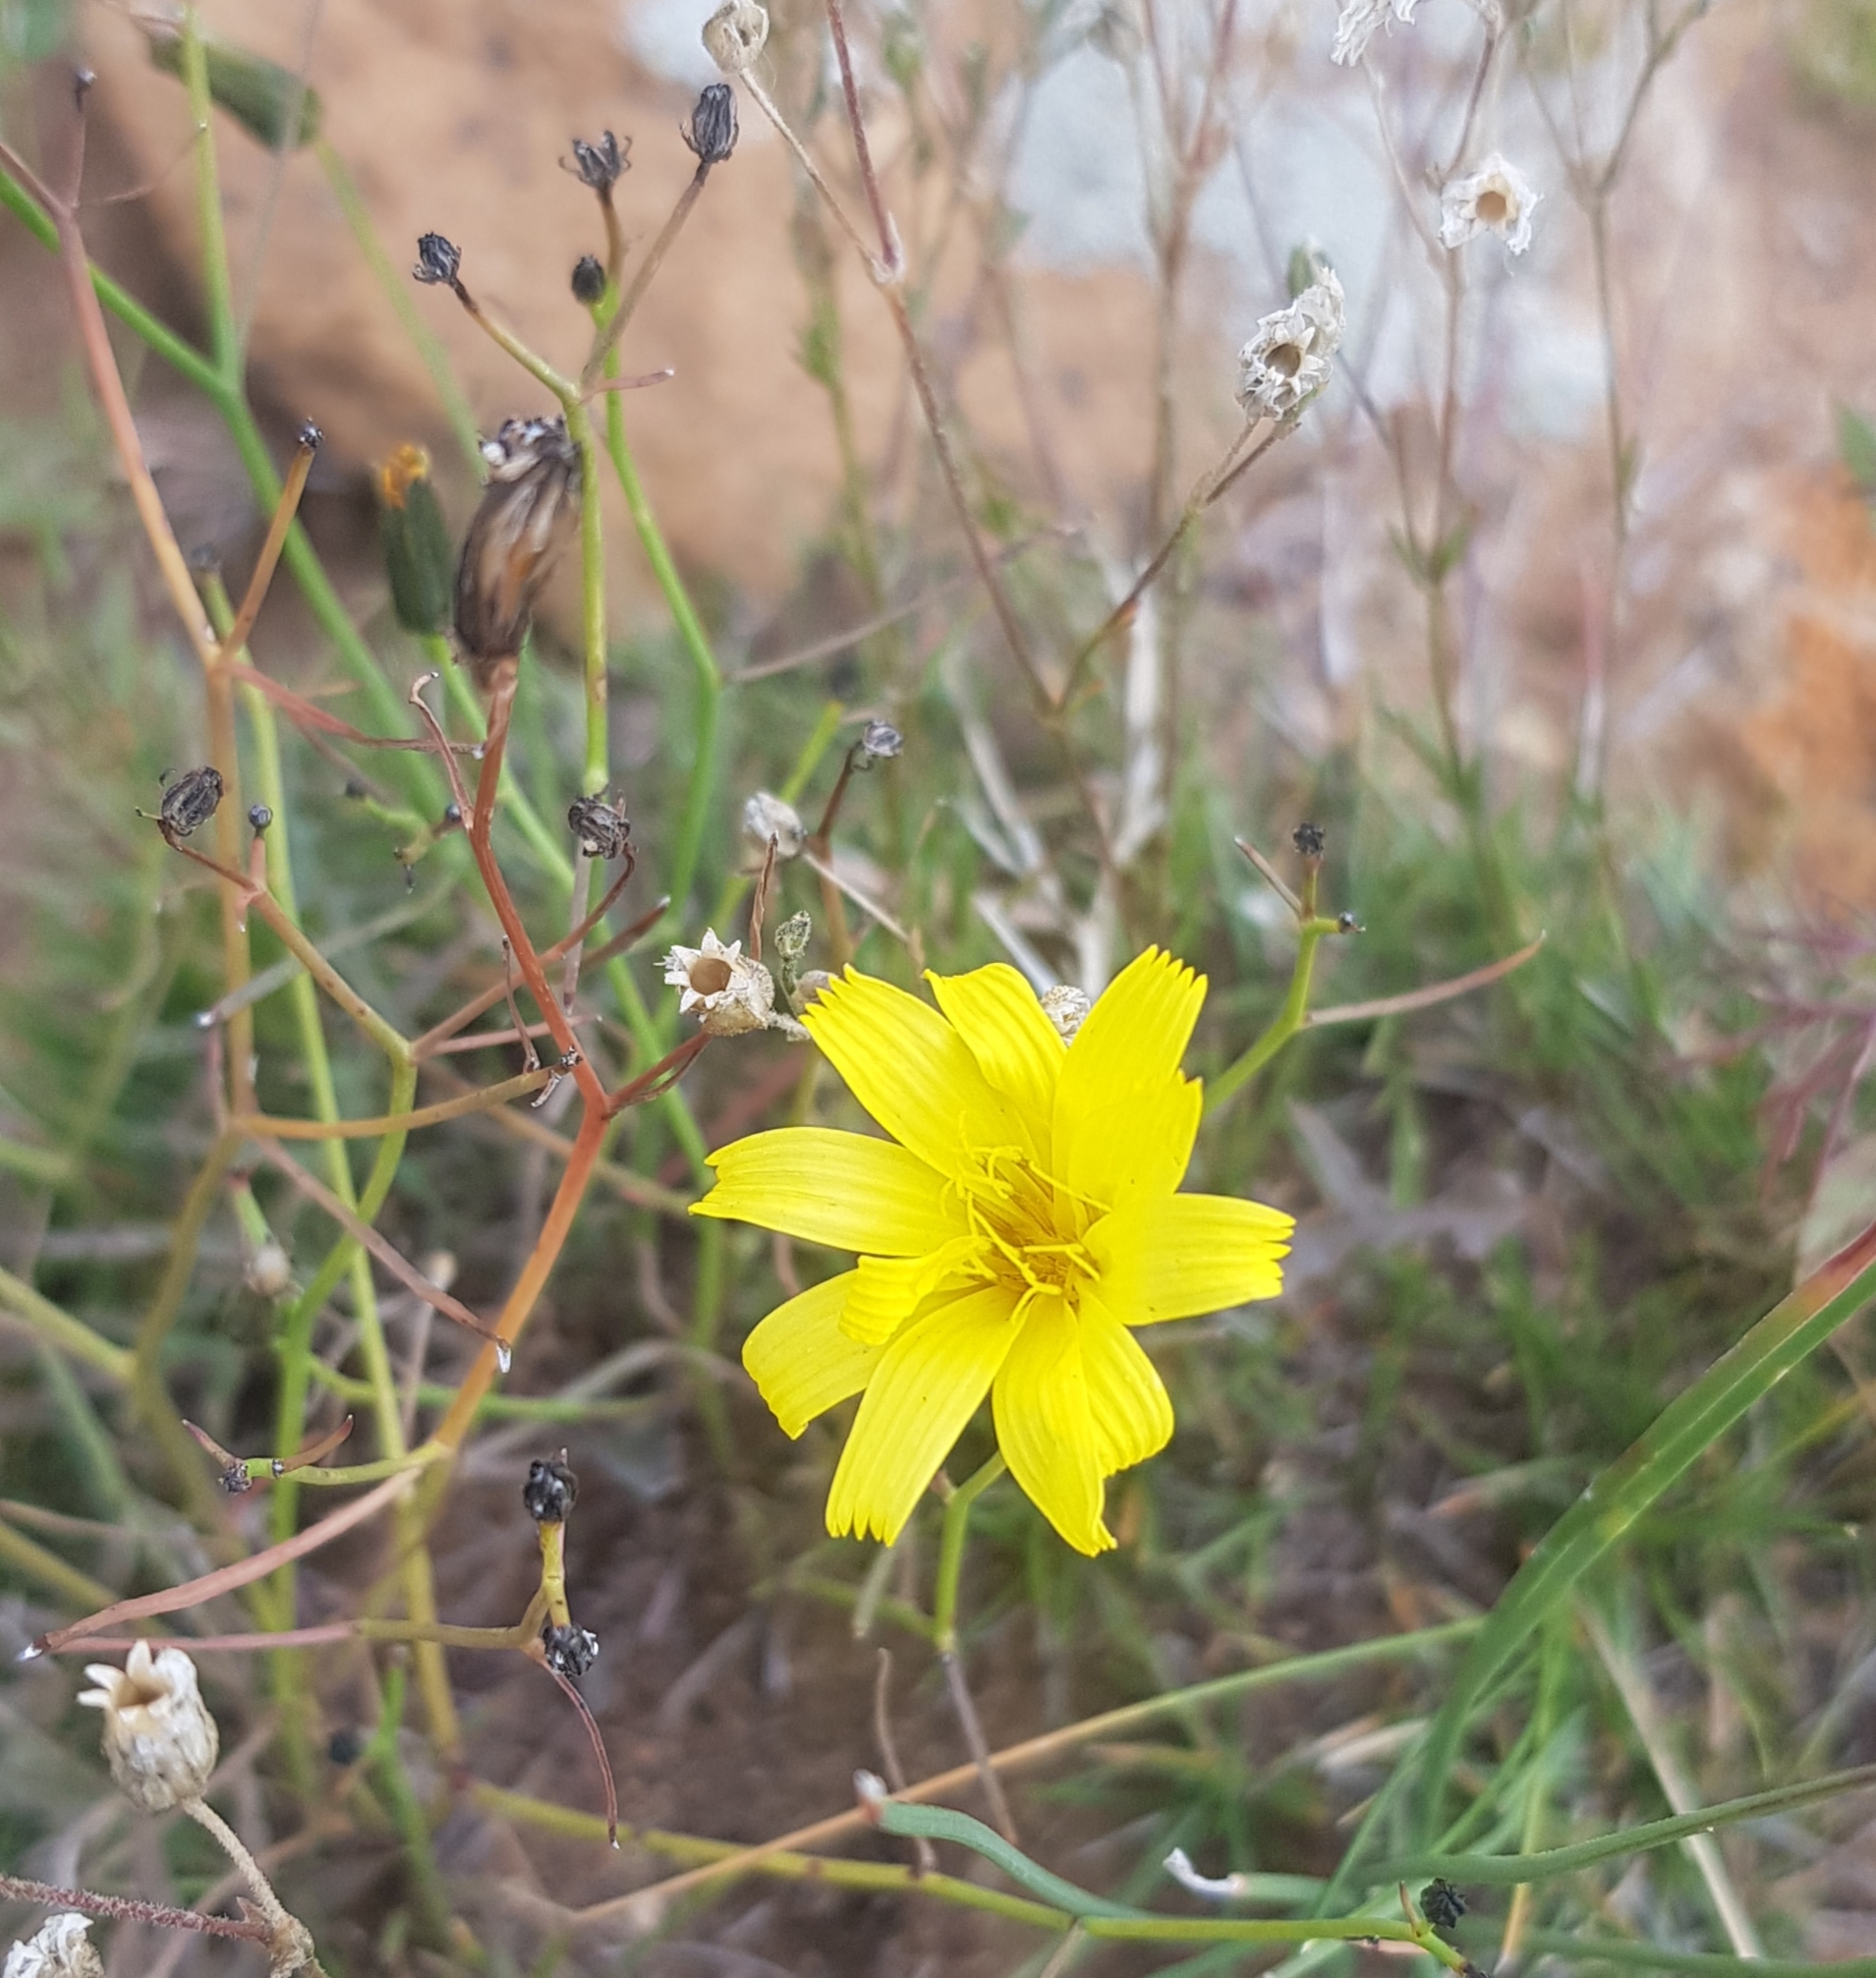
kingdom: Plantae
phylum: Tracheophyta
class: Magnoliopsida
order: Asterales
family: Asteraceae
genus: Crepidiastrum
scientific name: Crepidiastrum tenuifolium
